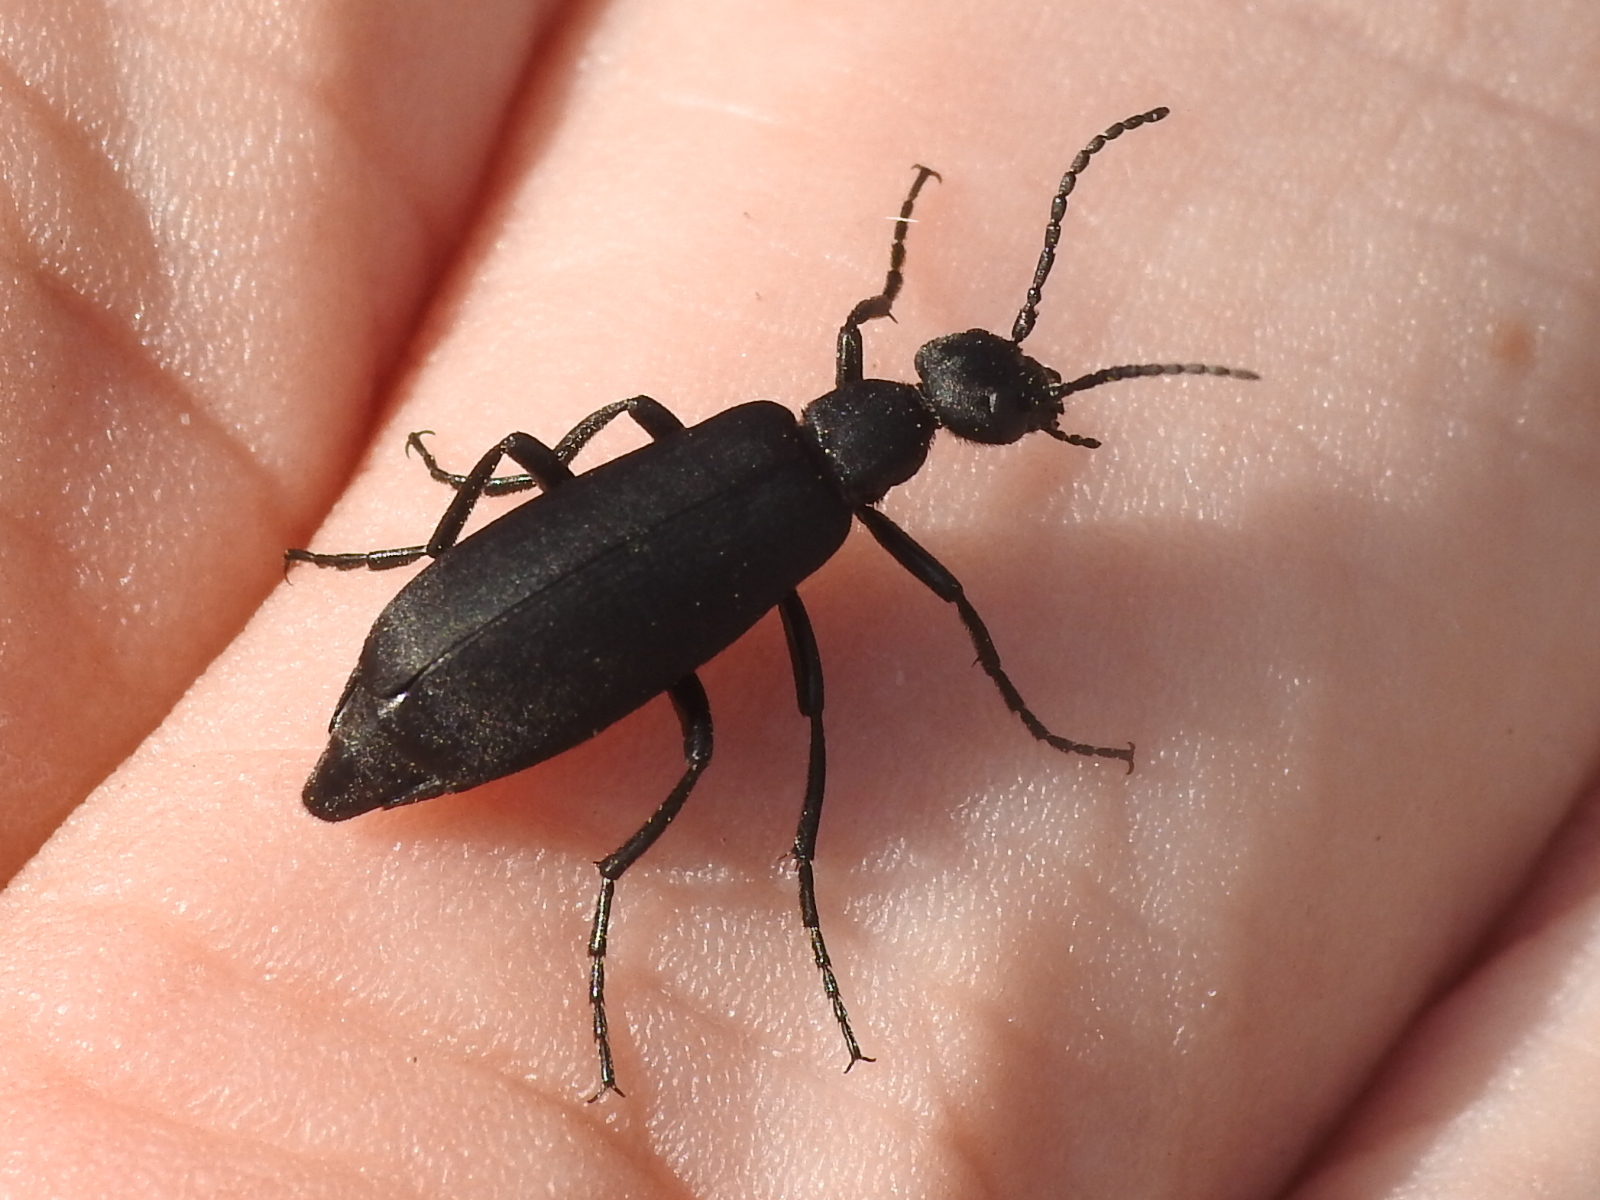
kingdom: Animalia
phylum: Arthropoda
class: Insecta
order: Coleoptera
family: Meloidae
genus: Epicauta
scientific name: Epicauta pensylvanica
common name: Black blister beetle
